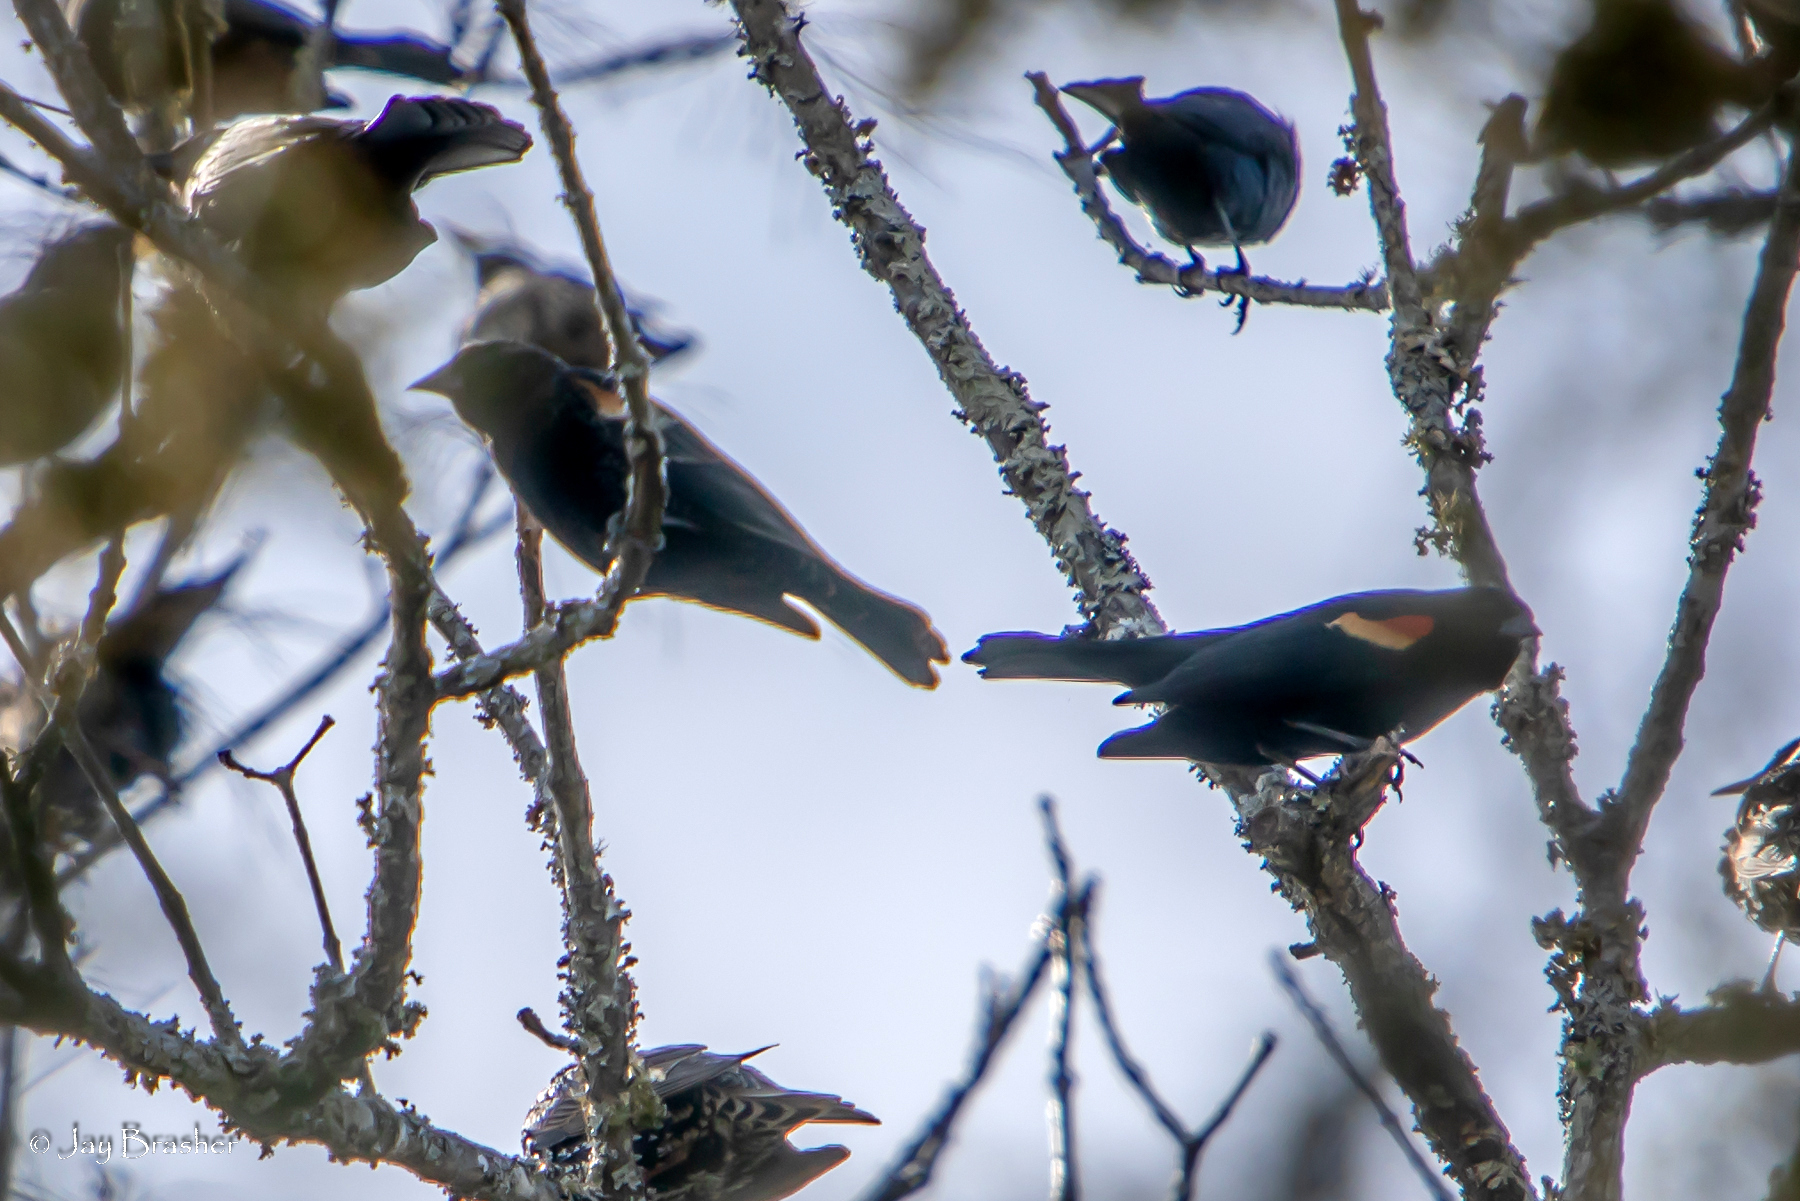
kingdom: Animalia
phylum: Chordata
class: Aves
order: Passeriformes
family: Icteridae
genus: Agelaius
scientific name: Agelaius phoeniceus
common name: Red-winged blackbird
